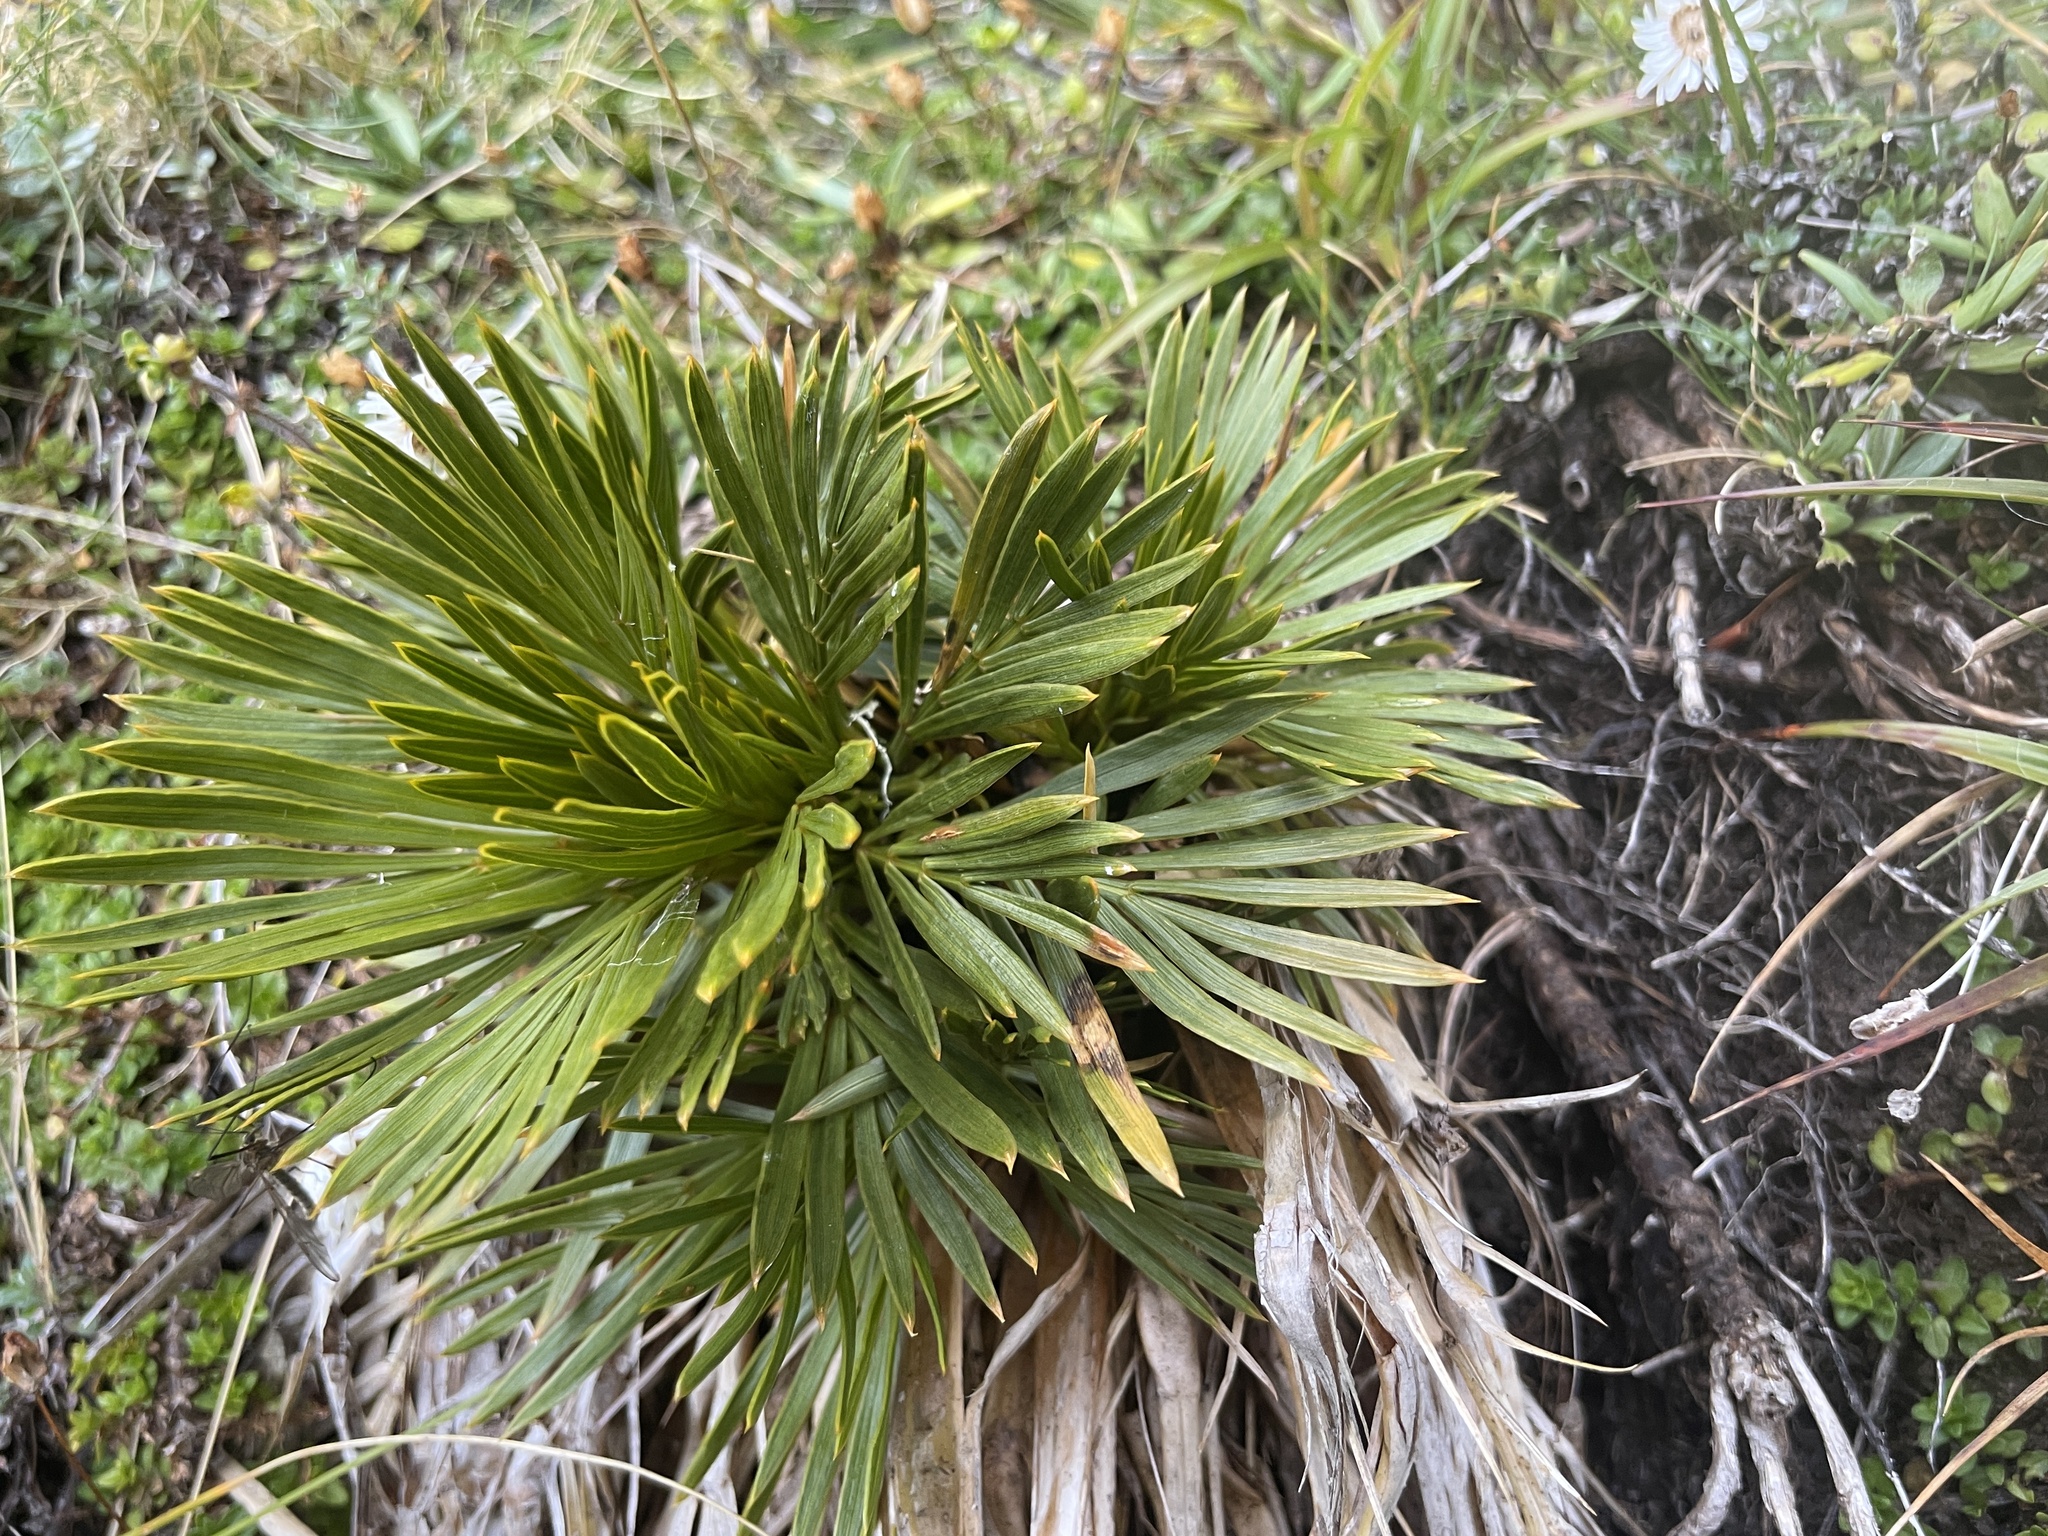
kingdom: Plantae
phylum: Tracheophyta
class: Magnoliopsida
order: Apiales
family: Apiaceae
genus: Aciphylla
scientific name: Aciphylla lecomtei
